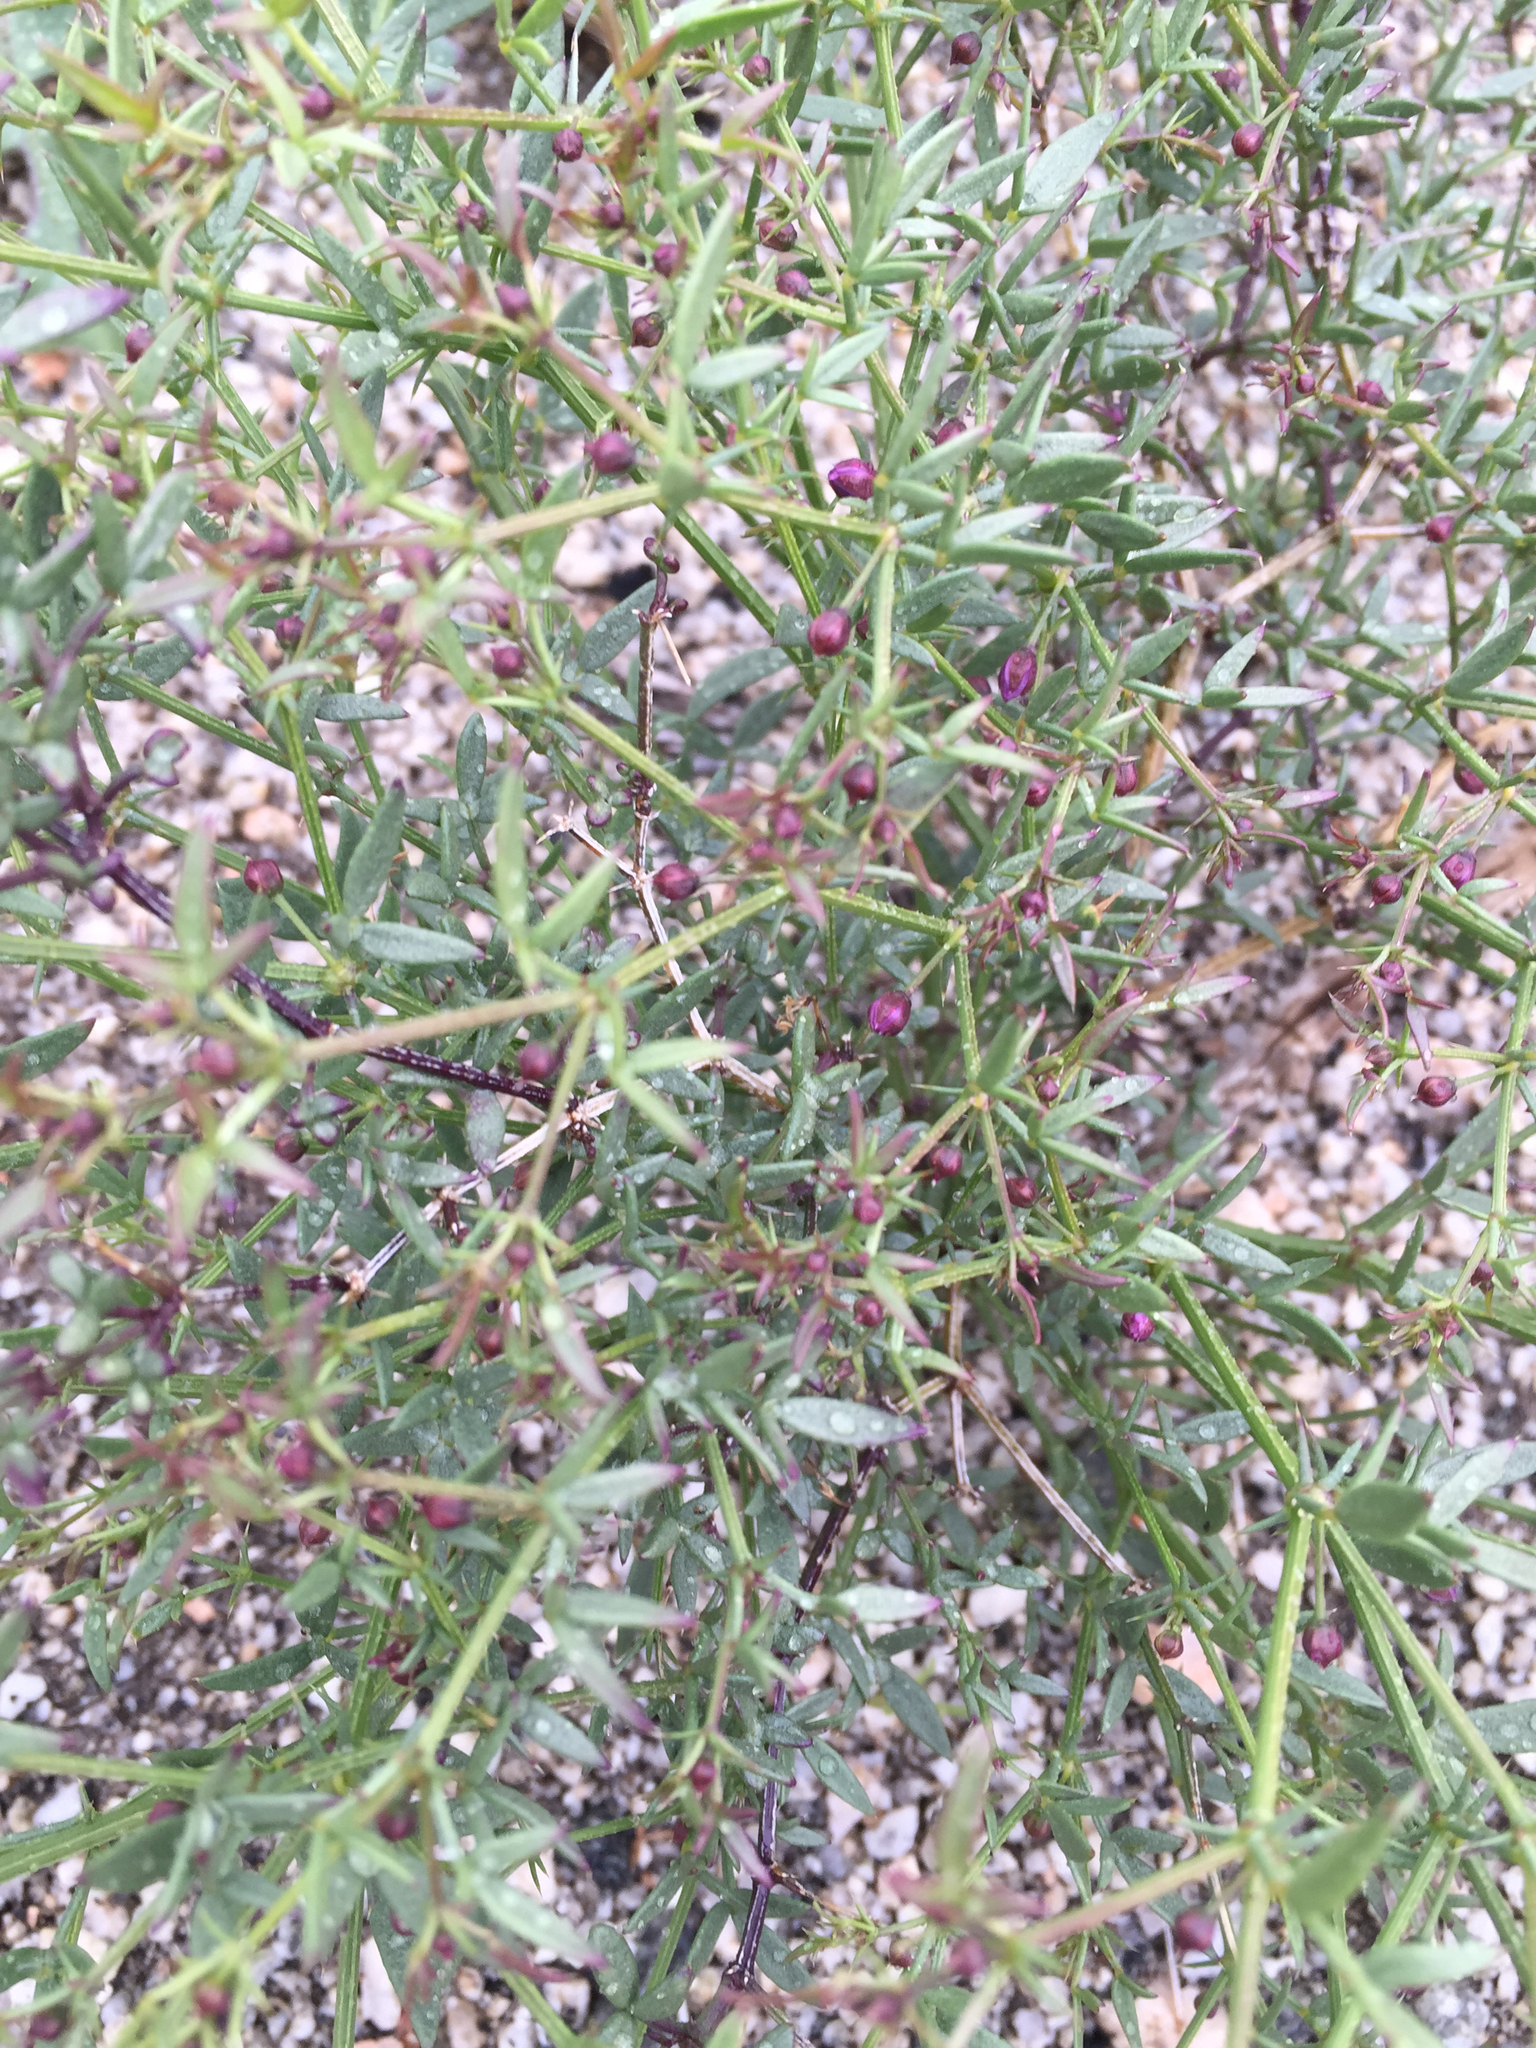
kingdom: Plantae
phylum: Tracheophyta
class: Magnoliopsida
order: Zygophyllales
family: Zygophyllaceae
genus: Fagonia
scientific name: Fagonia laevis
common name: California fagonbush
